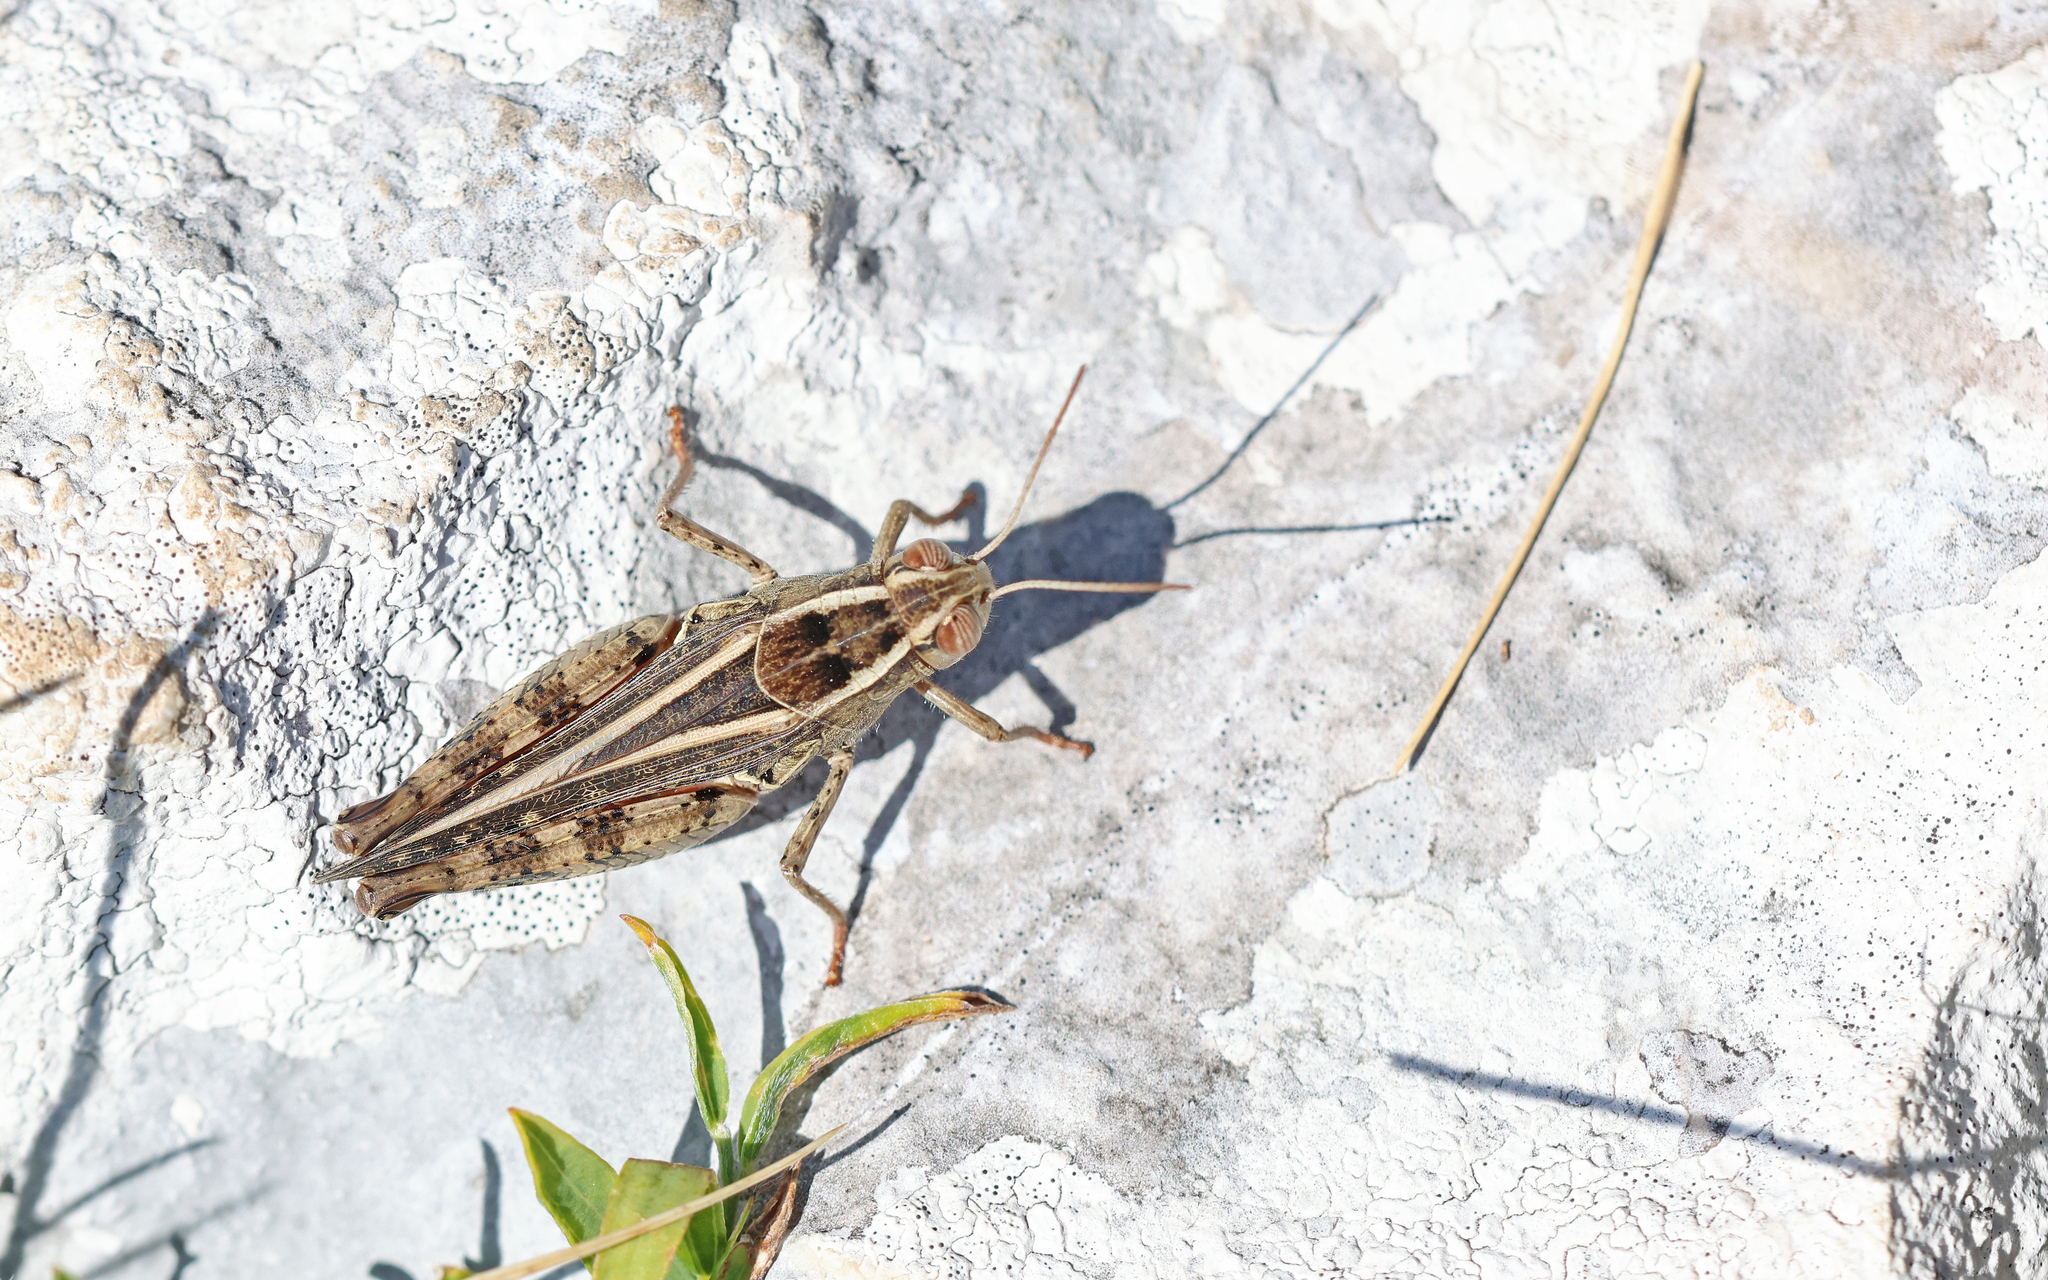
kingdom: Animalia
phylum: Arthropoda
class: Insecta
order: Orthoptera
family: Acrididae
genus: Calliptamus
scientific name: Calliptamus italicus
